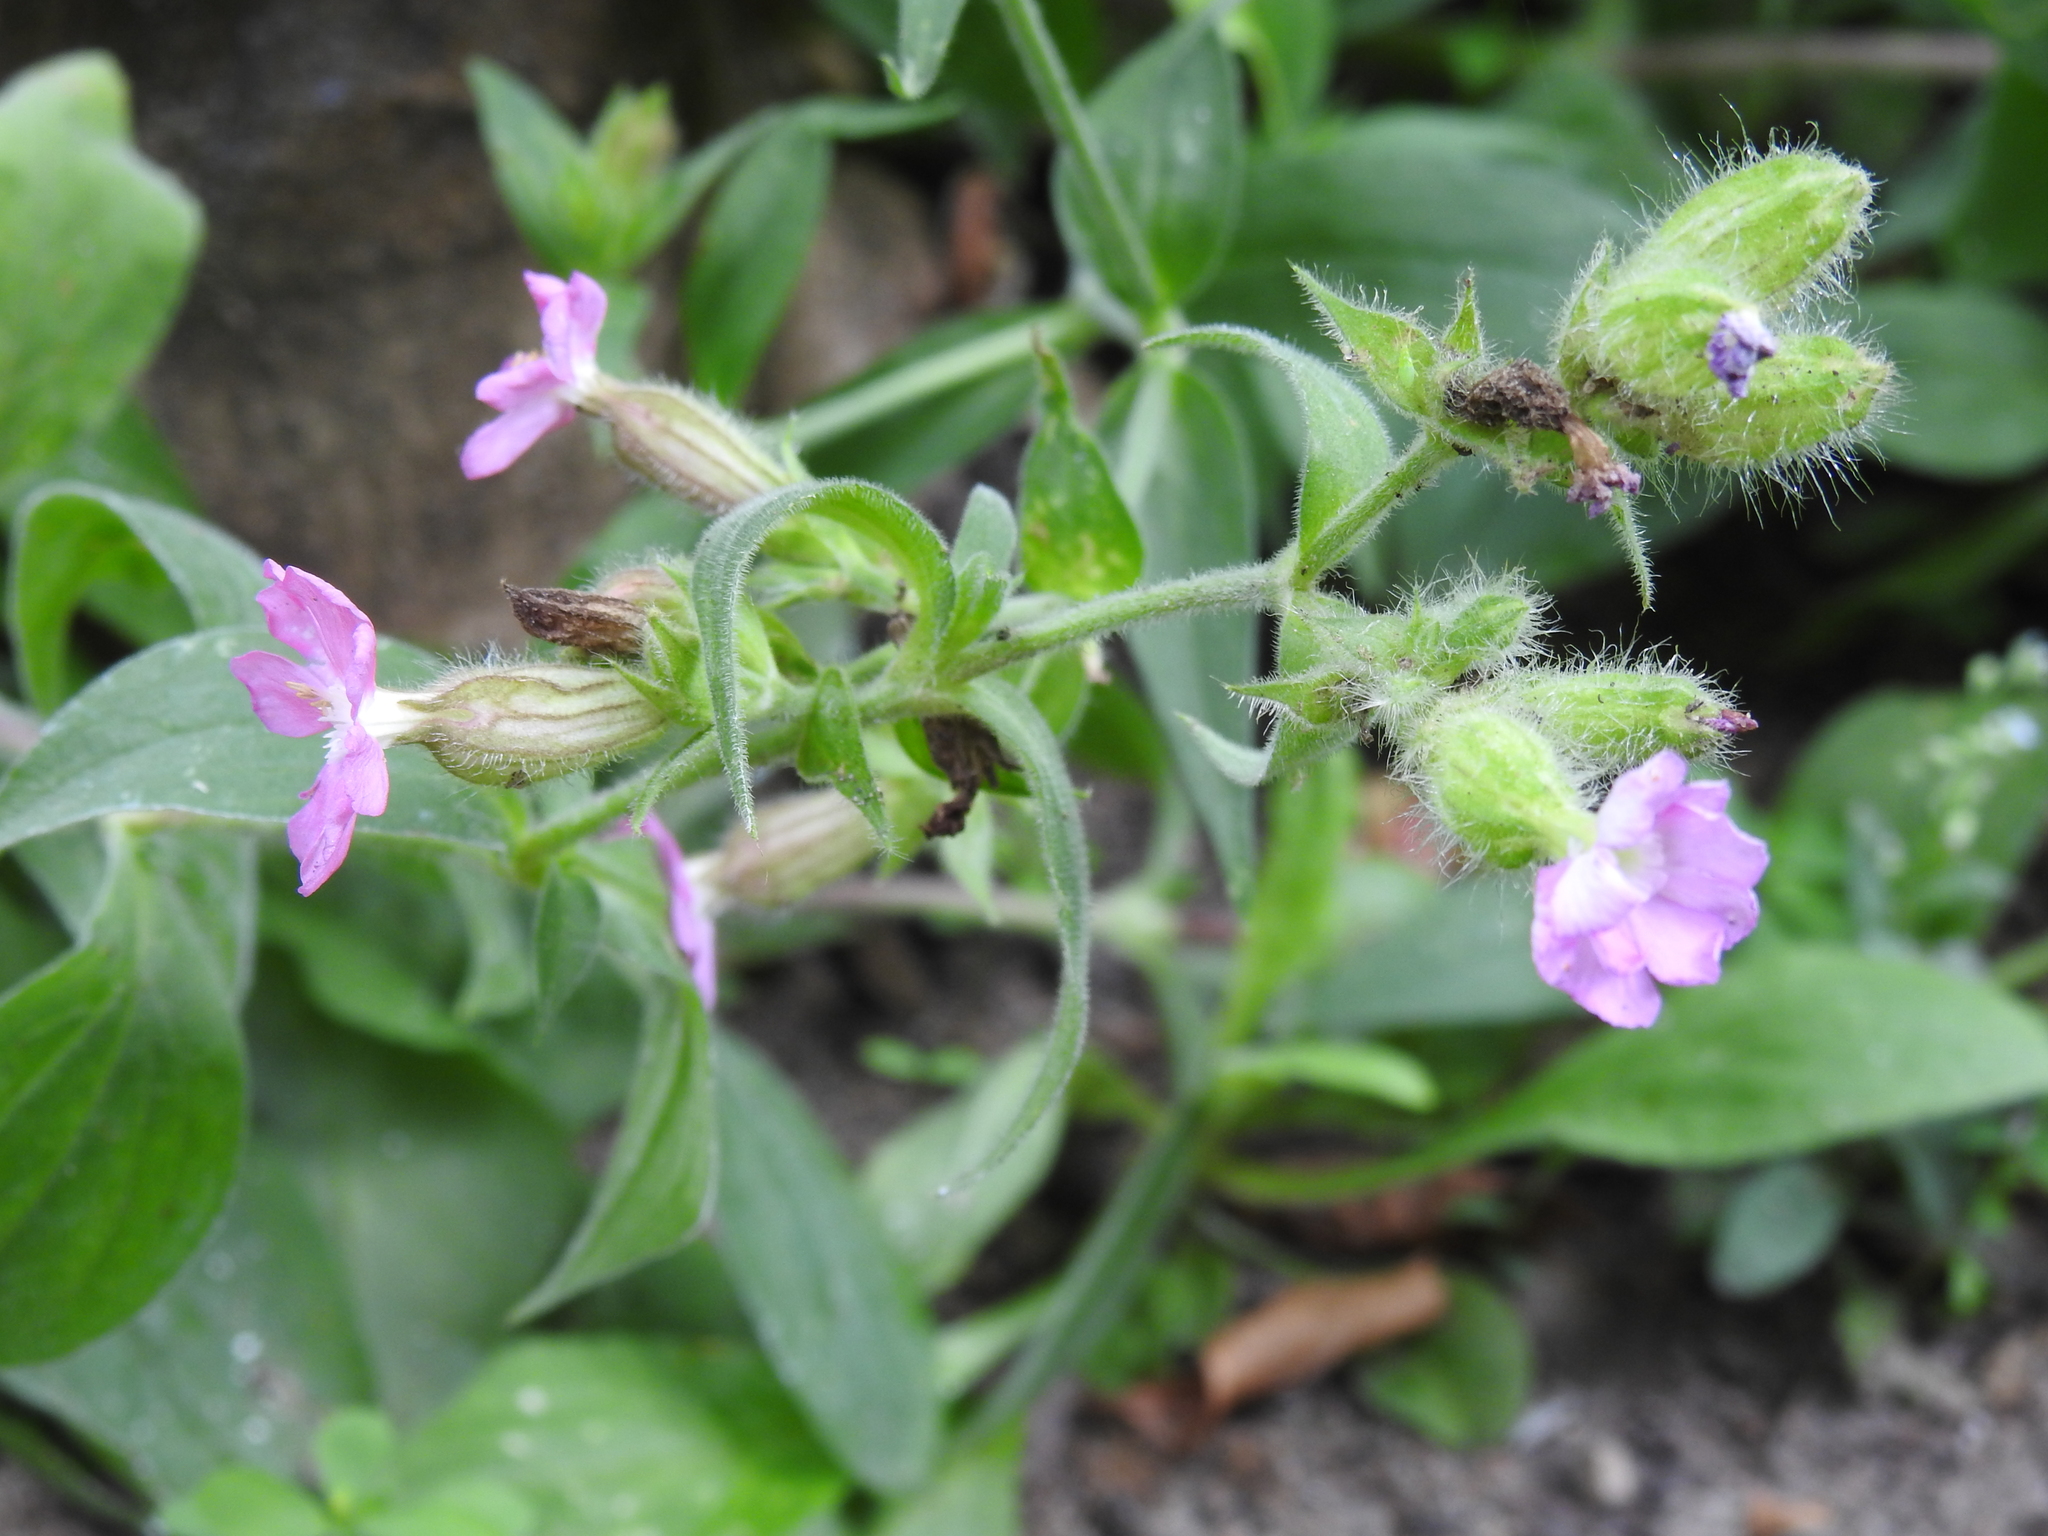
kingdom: Plantae
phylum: Tracheophyta
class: Magnoliopsida
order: Caryophyllales
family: Caryophyllaceae
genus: Silene
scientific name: Silene hampeana
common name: Catchfly
